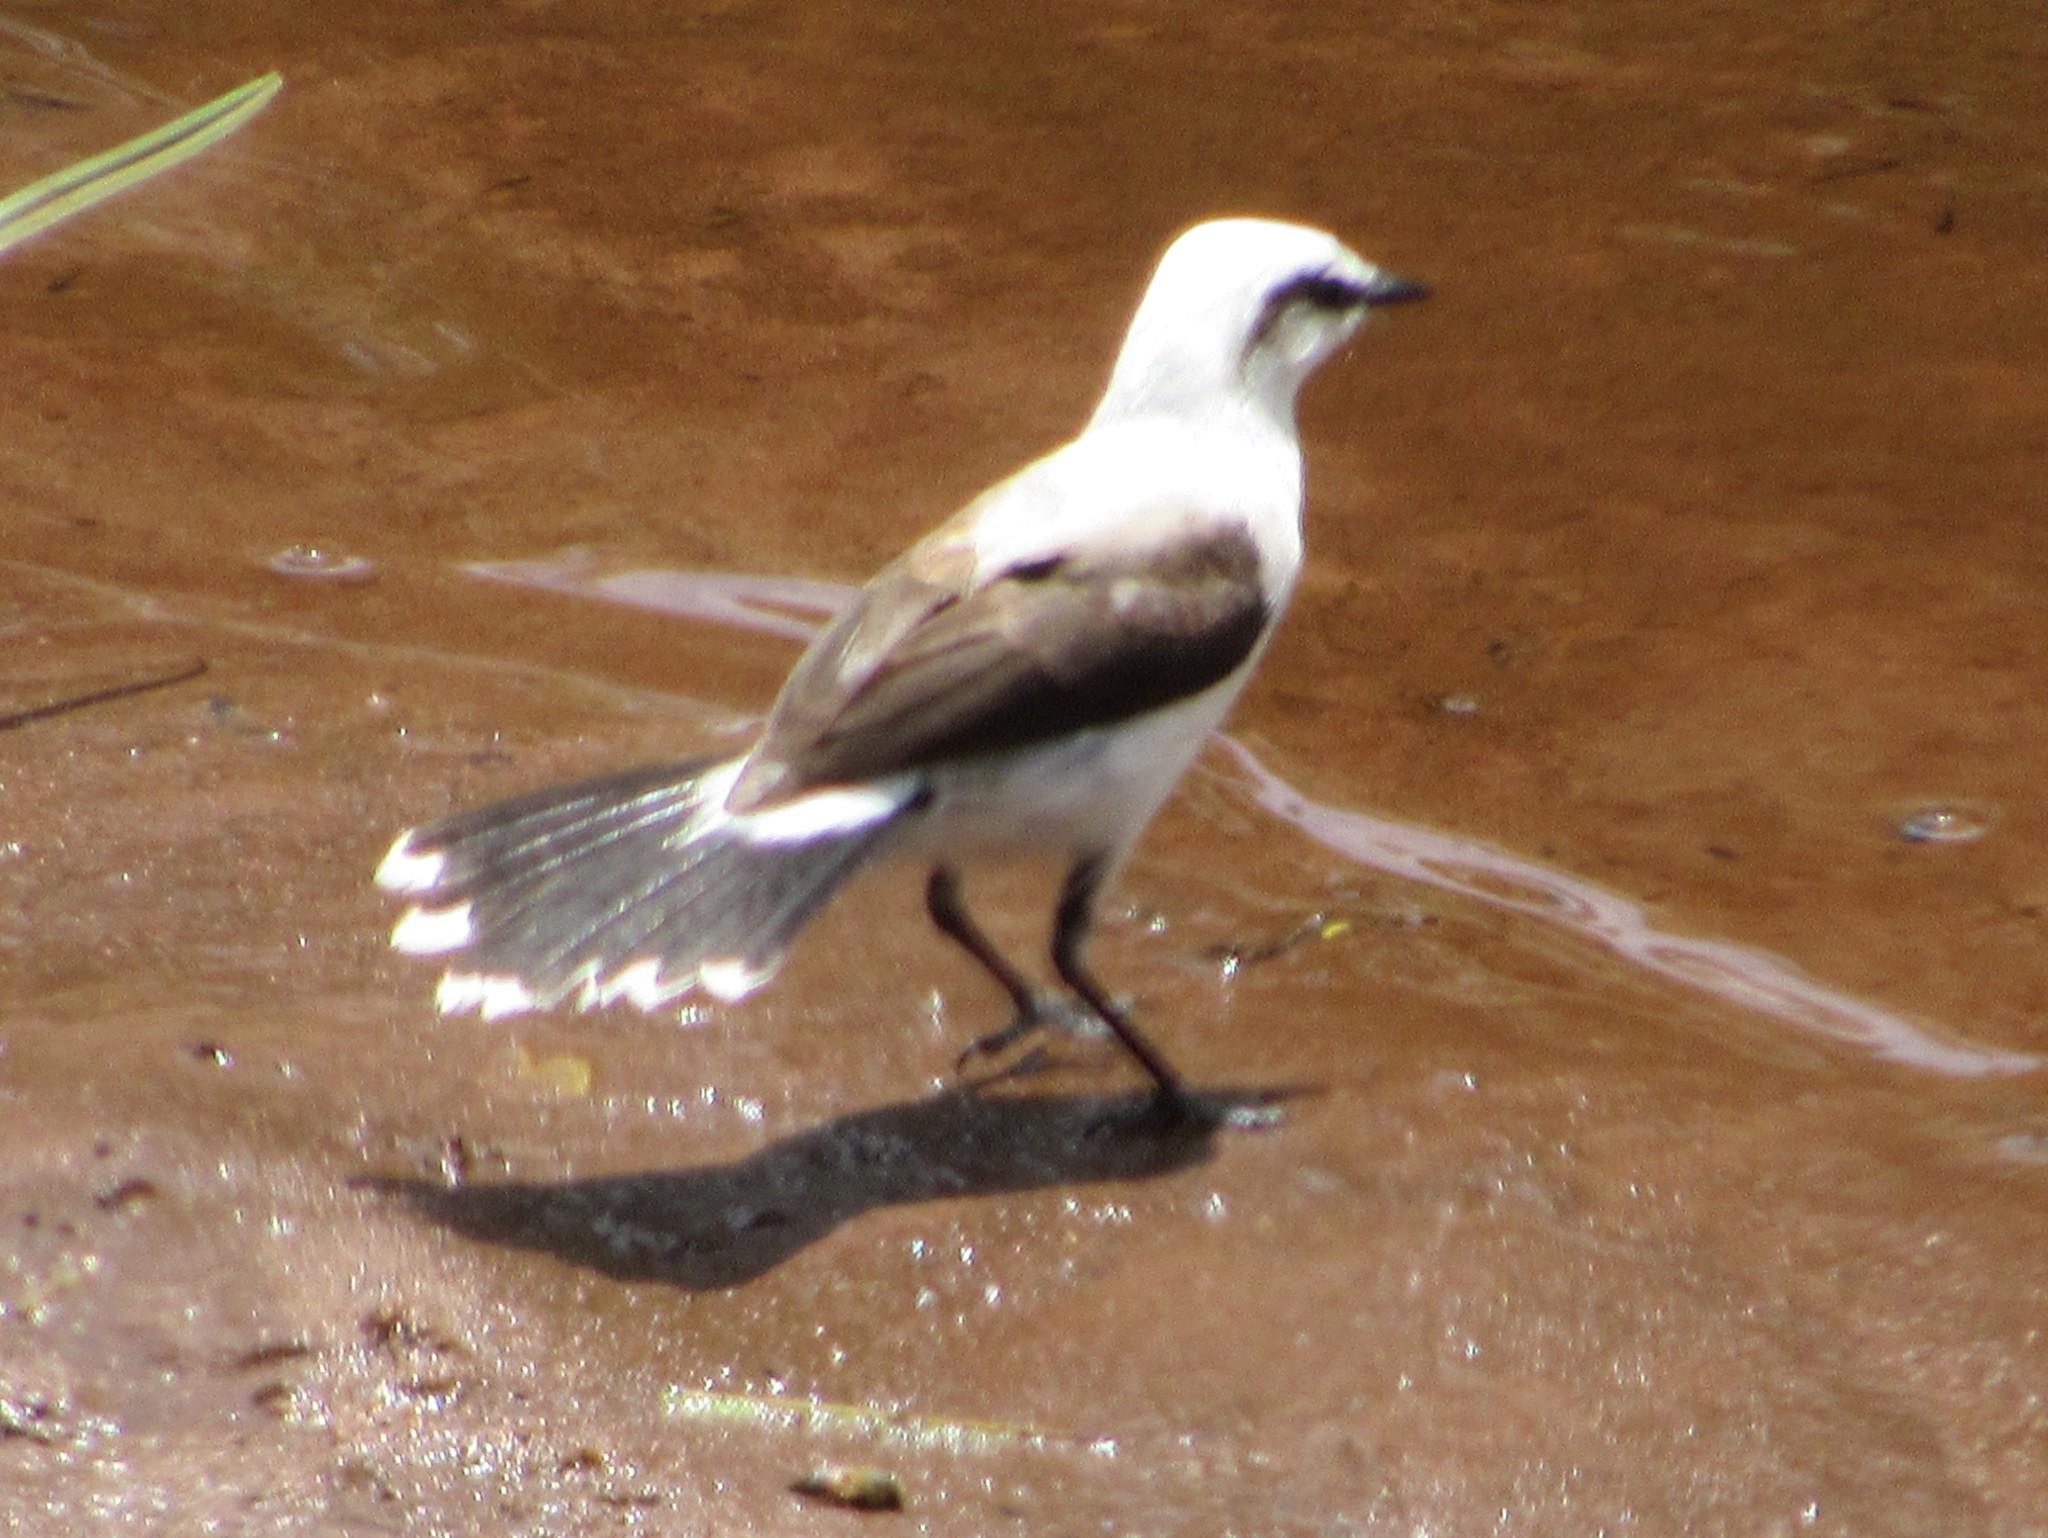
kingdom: Animalia
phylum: Chordata
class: Aves
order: Passeriformes
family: Tyrannidae
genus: Fluvicola
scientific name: Fluvicola nengeta
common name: Masked water tyrant
